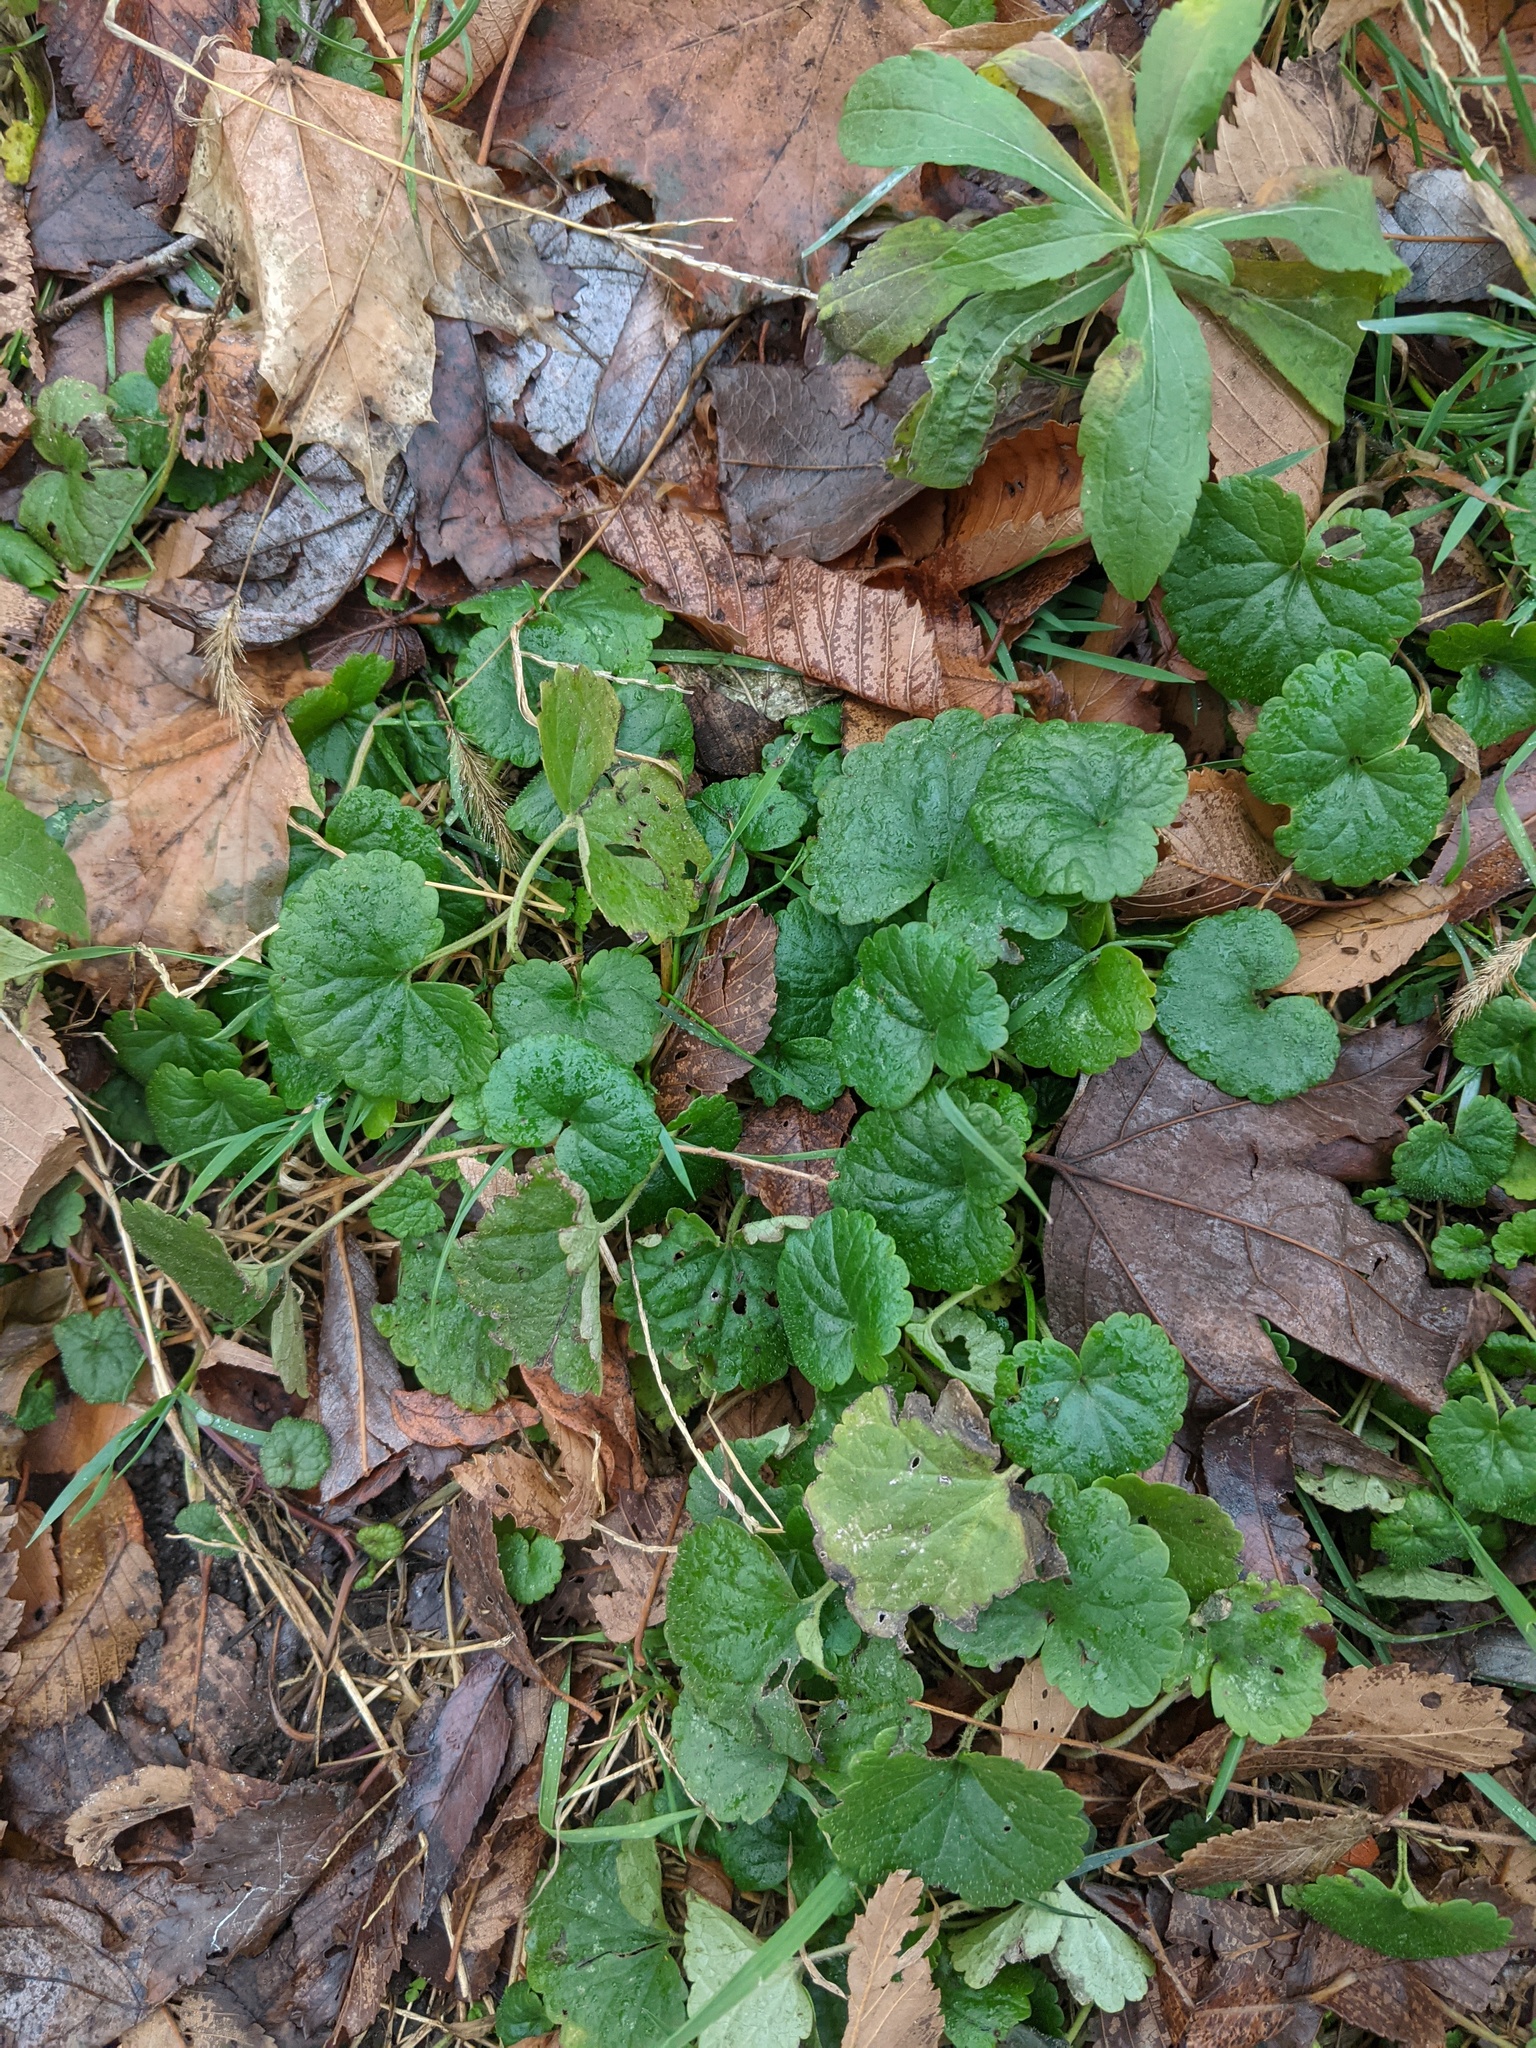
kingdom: Plantae
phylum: Tracheophyta
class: Magnoliopsida
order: Lamiales
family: Lamiaceae
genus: Glechoma
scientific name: Glechoma hederacea
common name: Ground ivy
